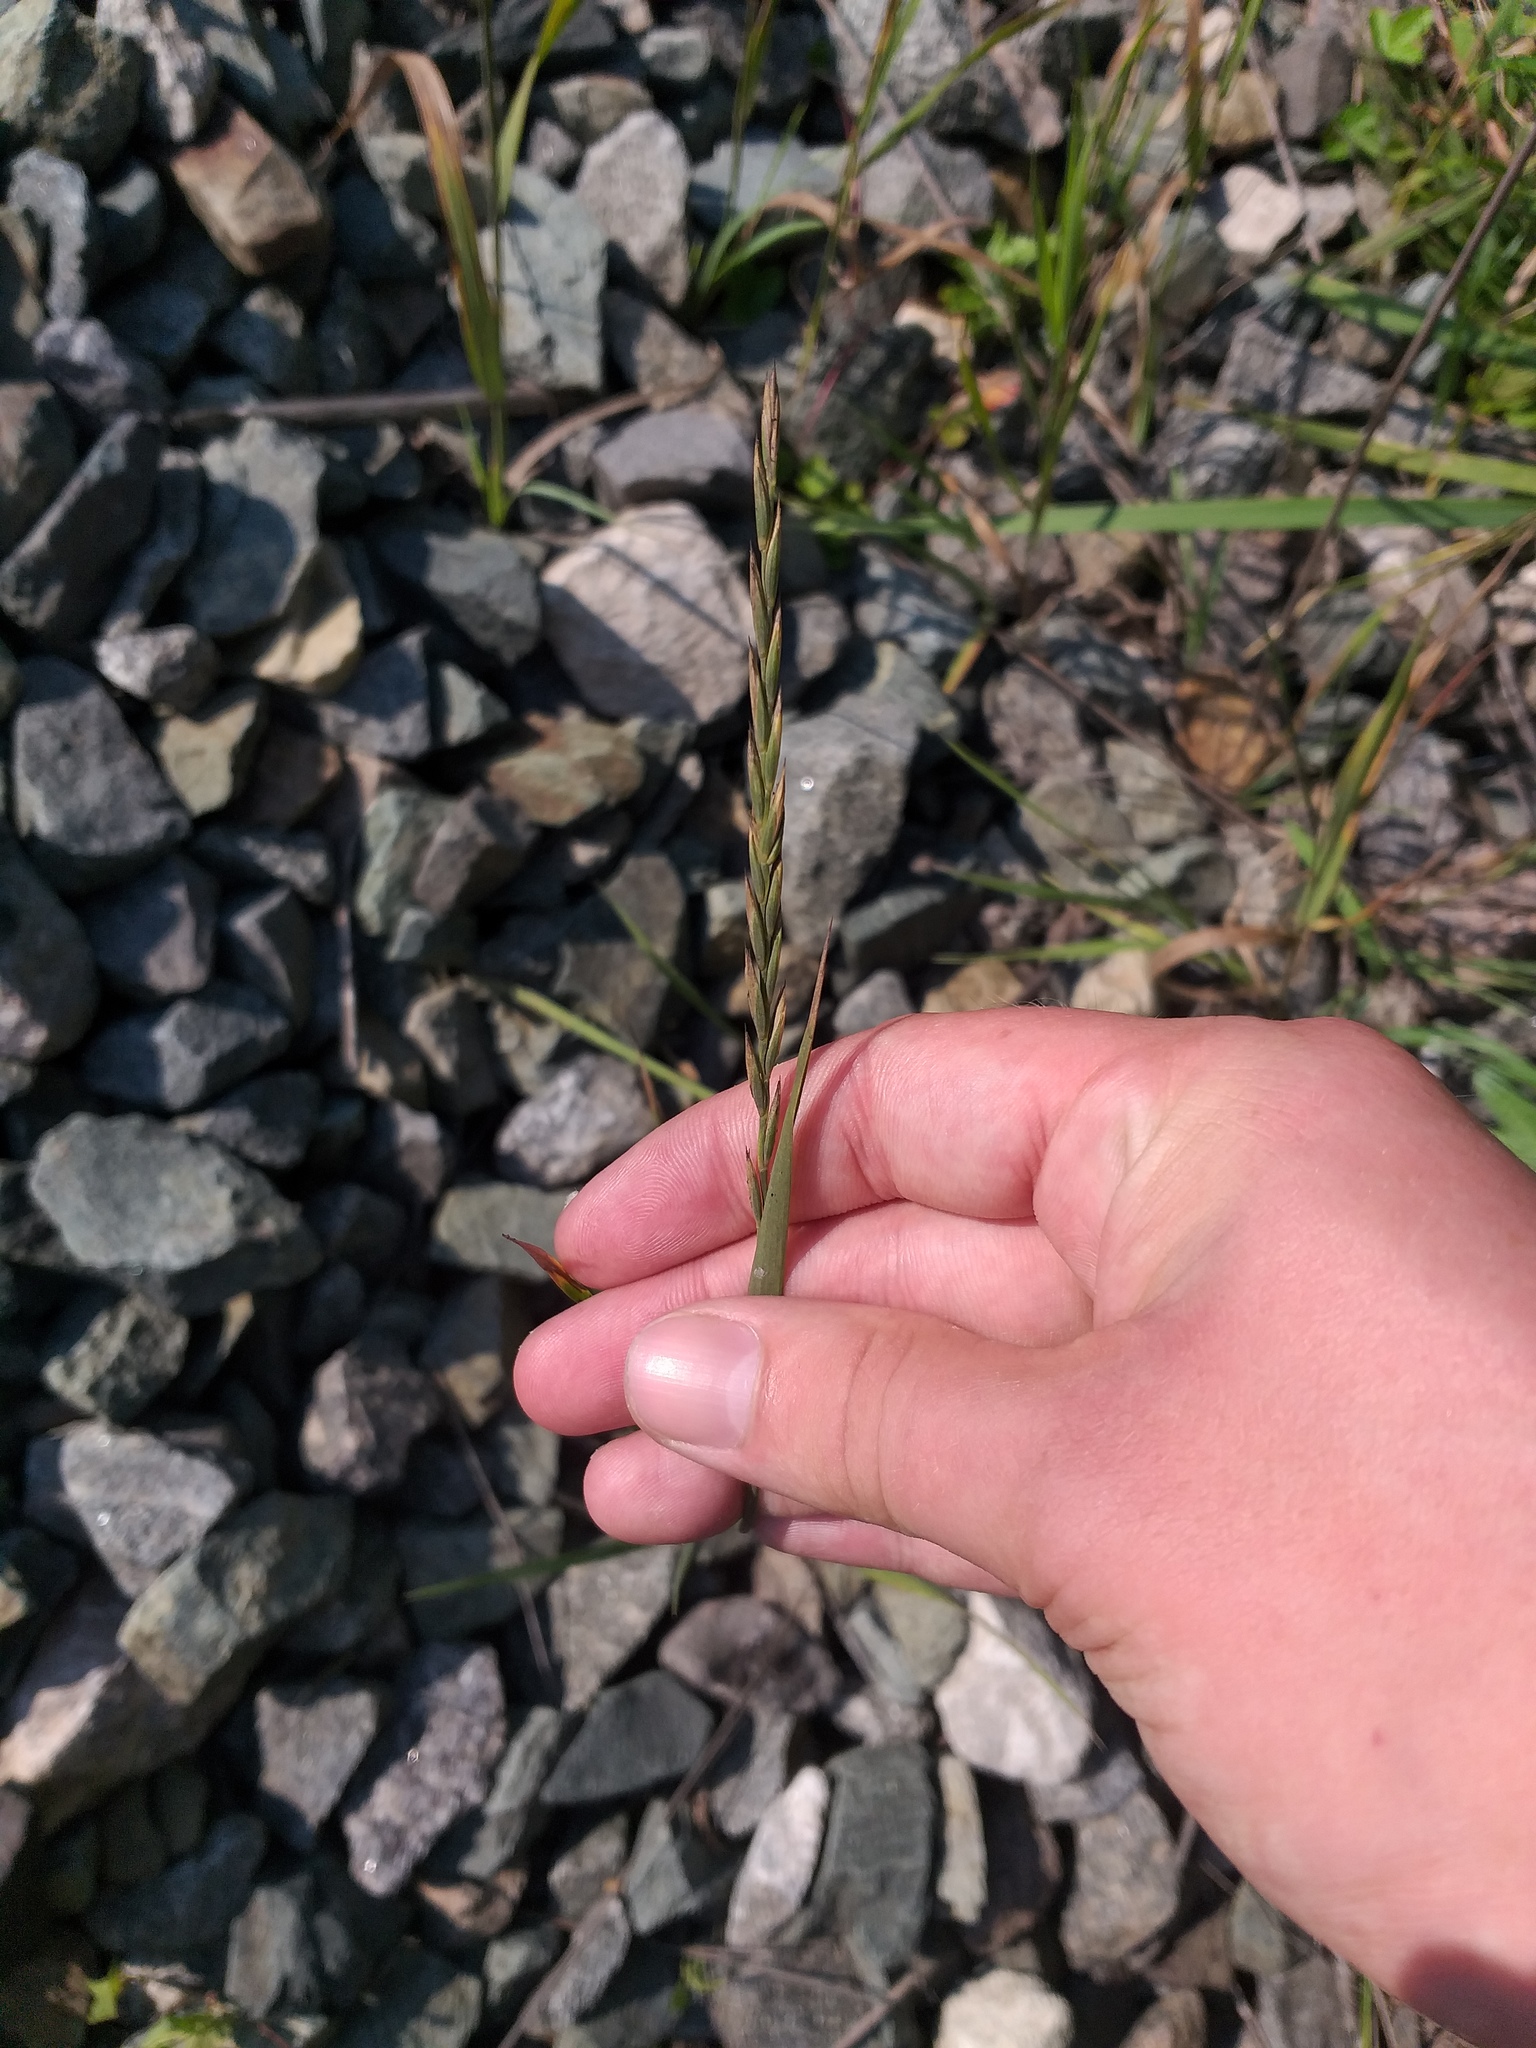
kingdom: Plantae
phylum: Tracheophyta
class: Liliopsida
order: Poales
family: Poaceae
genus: Elymus
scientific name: Elymus repens
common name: Quackgrass
